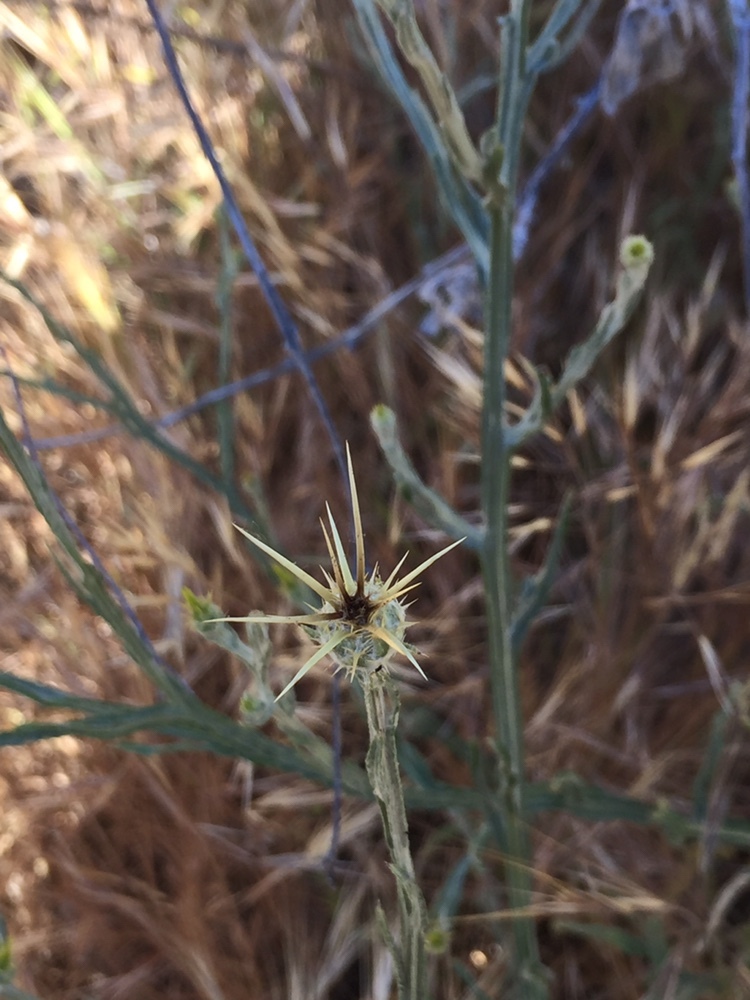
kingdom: Plantae
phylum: Tracheophyta
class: Magnoliopsida
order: Asterales
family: Asteraceae
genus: Centaurea
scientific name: Centaurea solstitialis
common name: Yellow star-thistle
